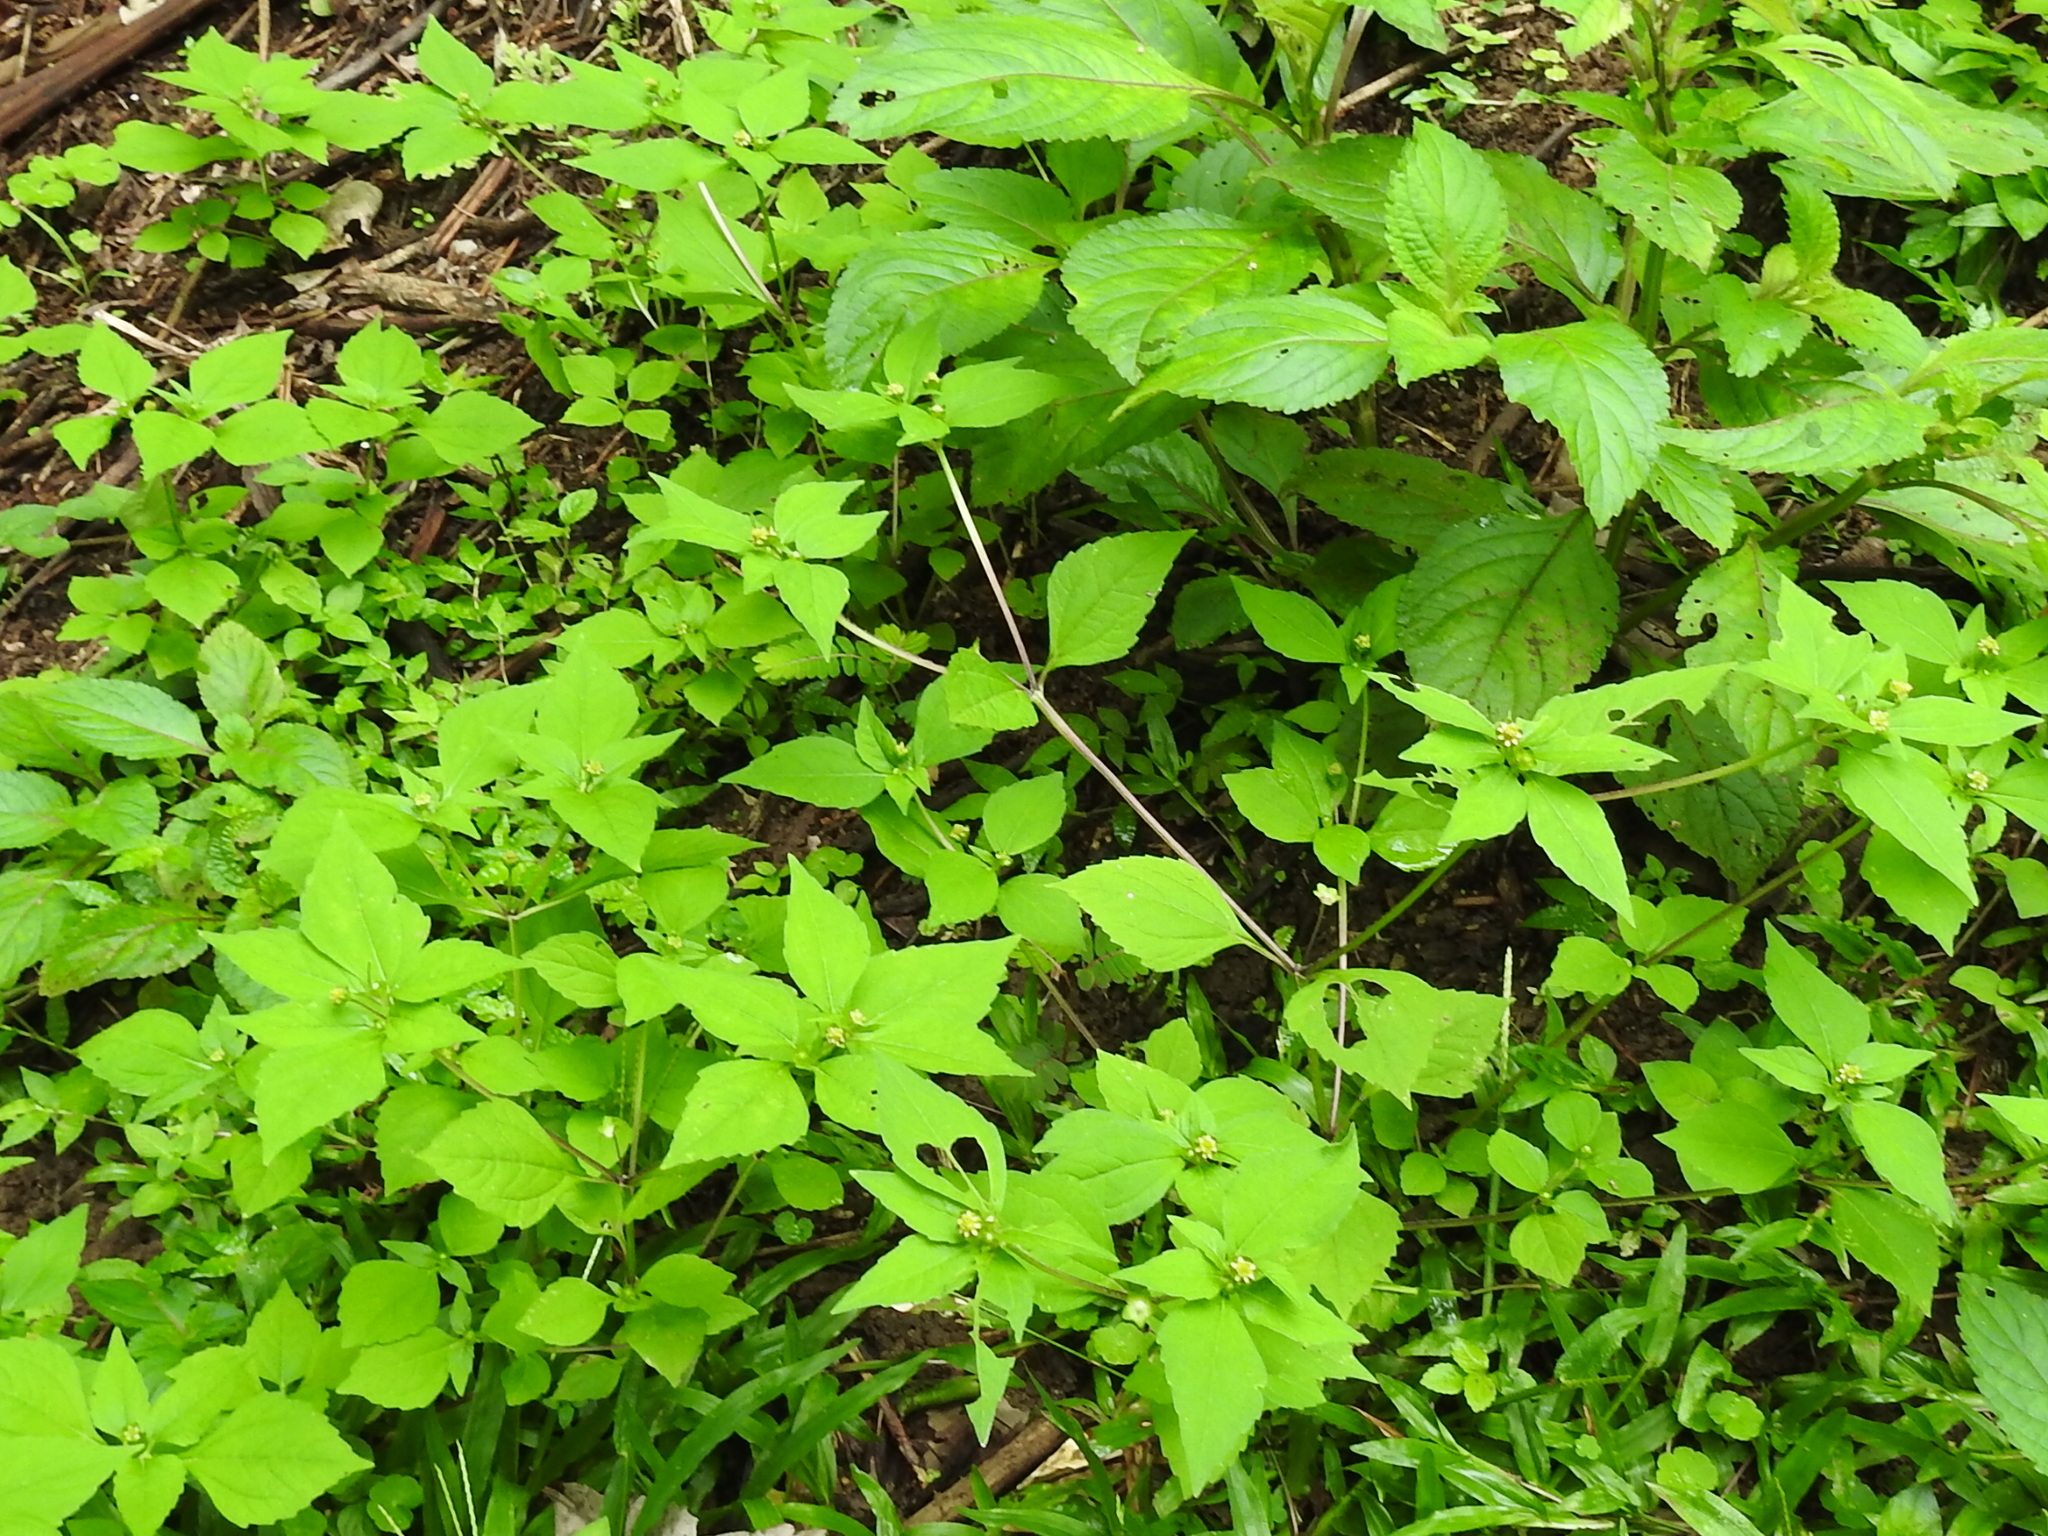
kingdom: Plantae
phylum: Tracheophyta
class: Magnoliopsida
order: Asterales
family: Asteraceae
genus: Melampodium
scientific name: Melampodium costaricense
